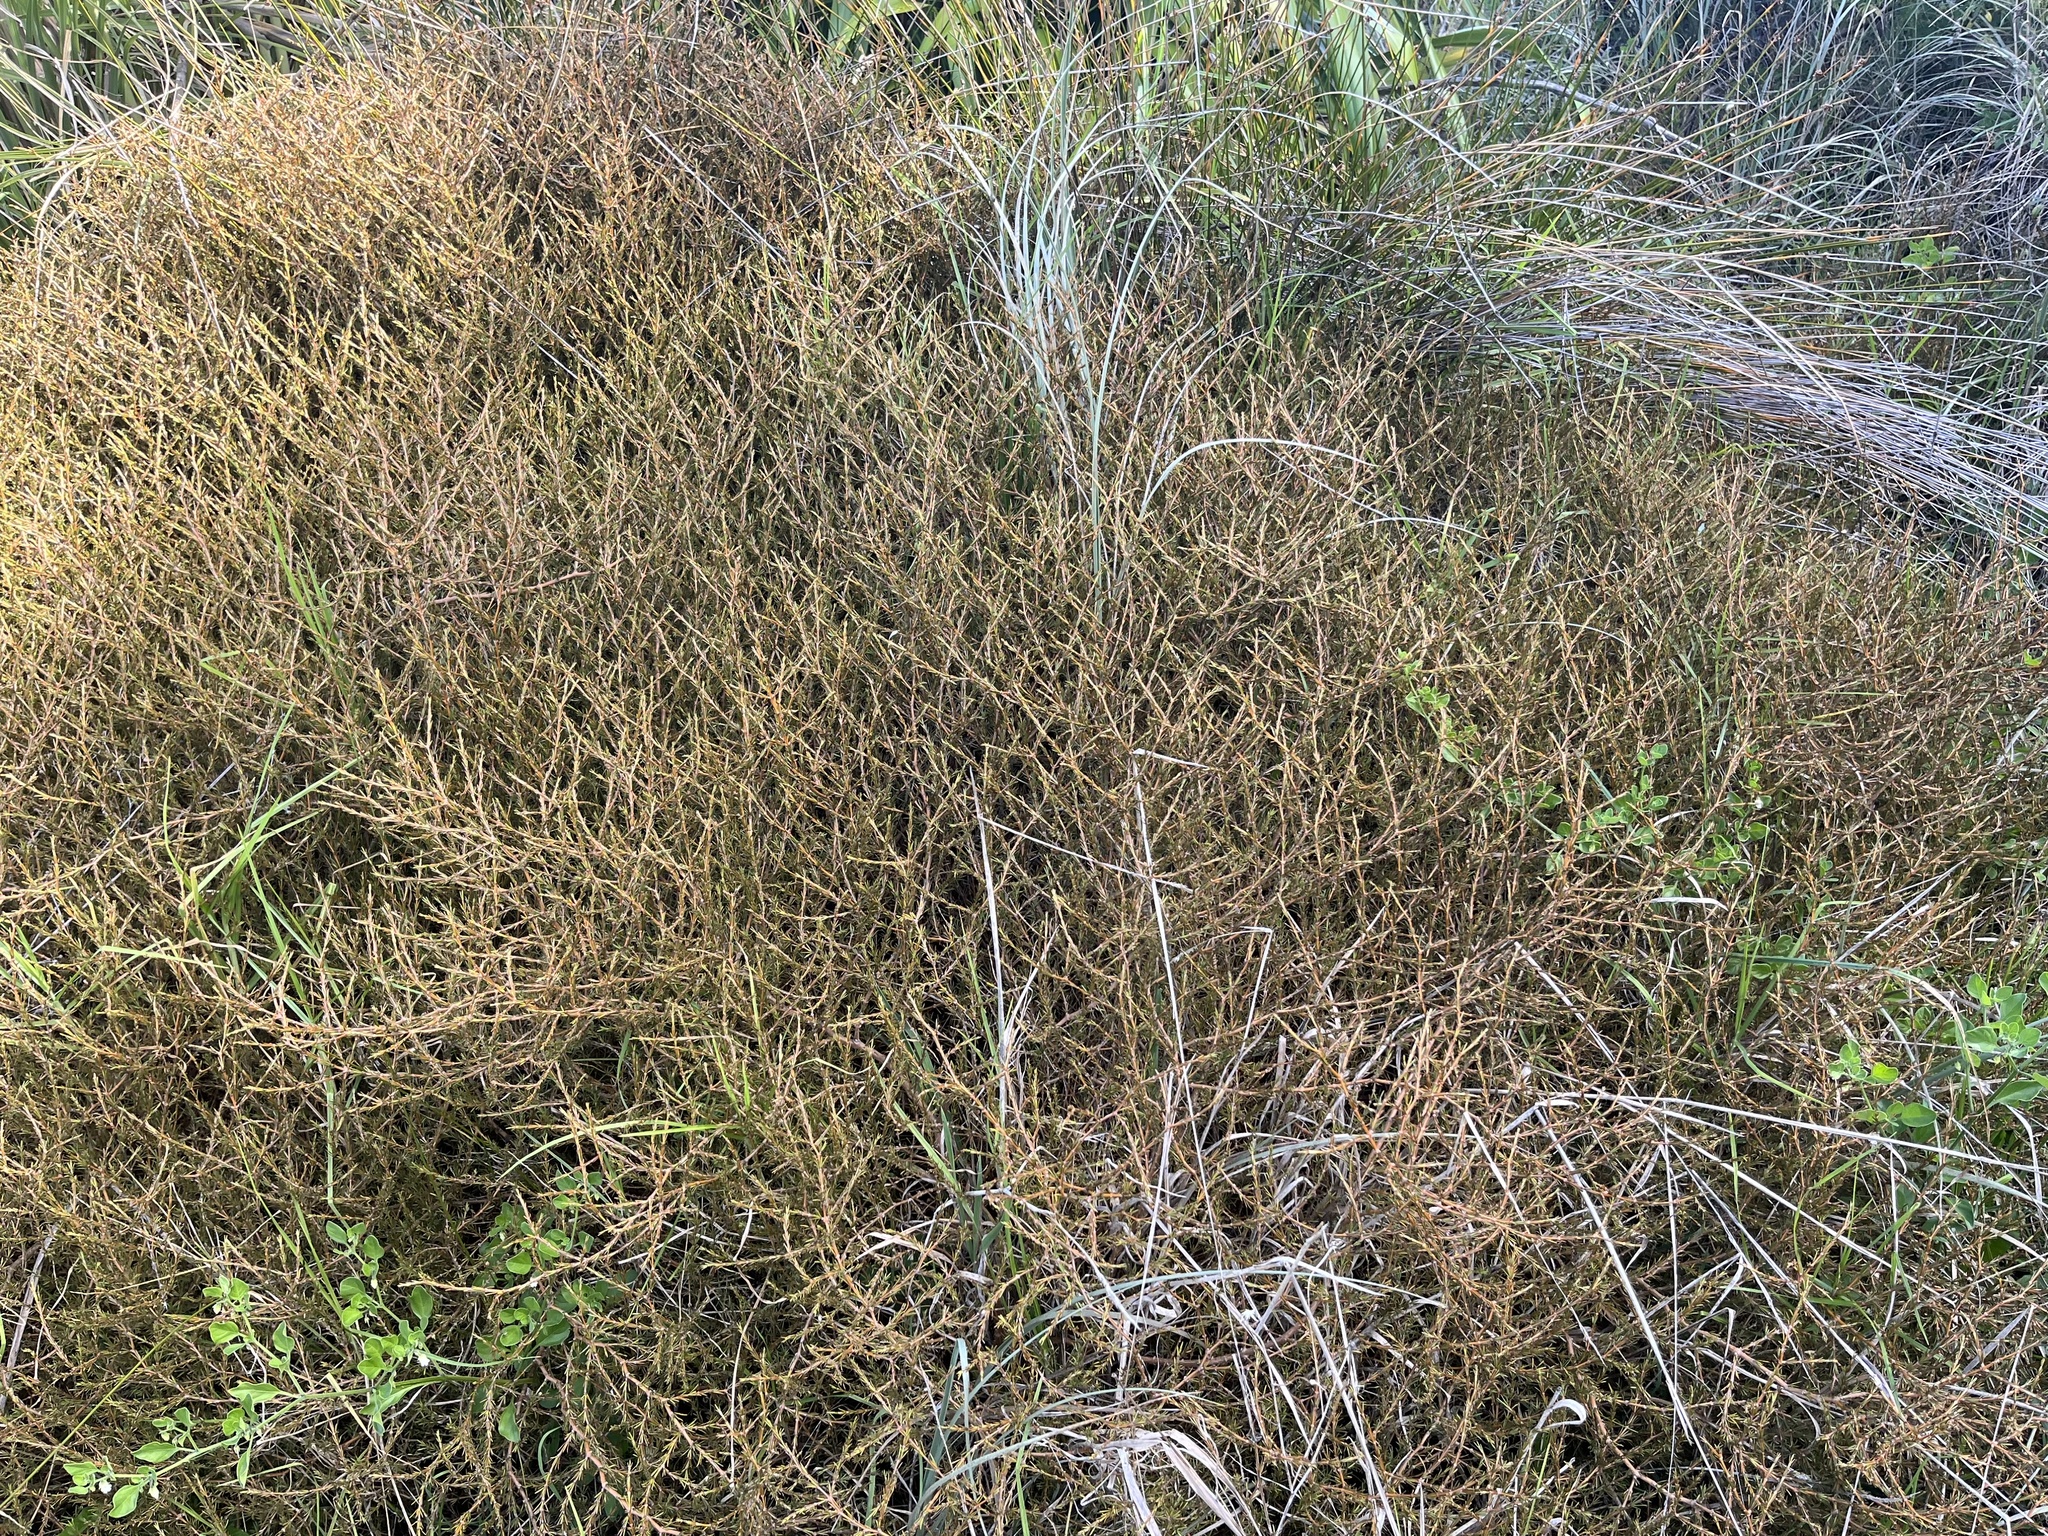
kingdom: Plantae
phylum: Tracheophyta
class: Magnoliopsida
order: Gentianales
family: Rubiaceae
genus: Coprosma
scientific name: Coprosma acerosa
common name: Sand coprosma
